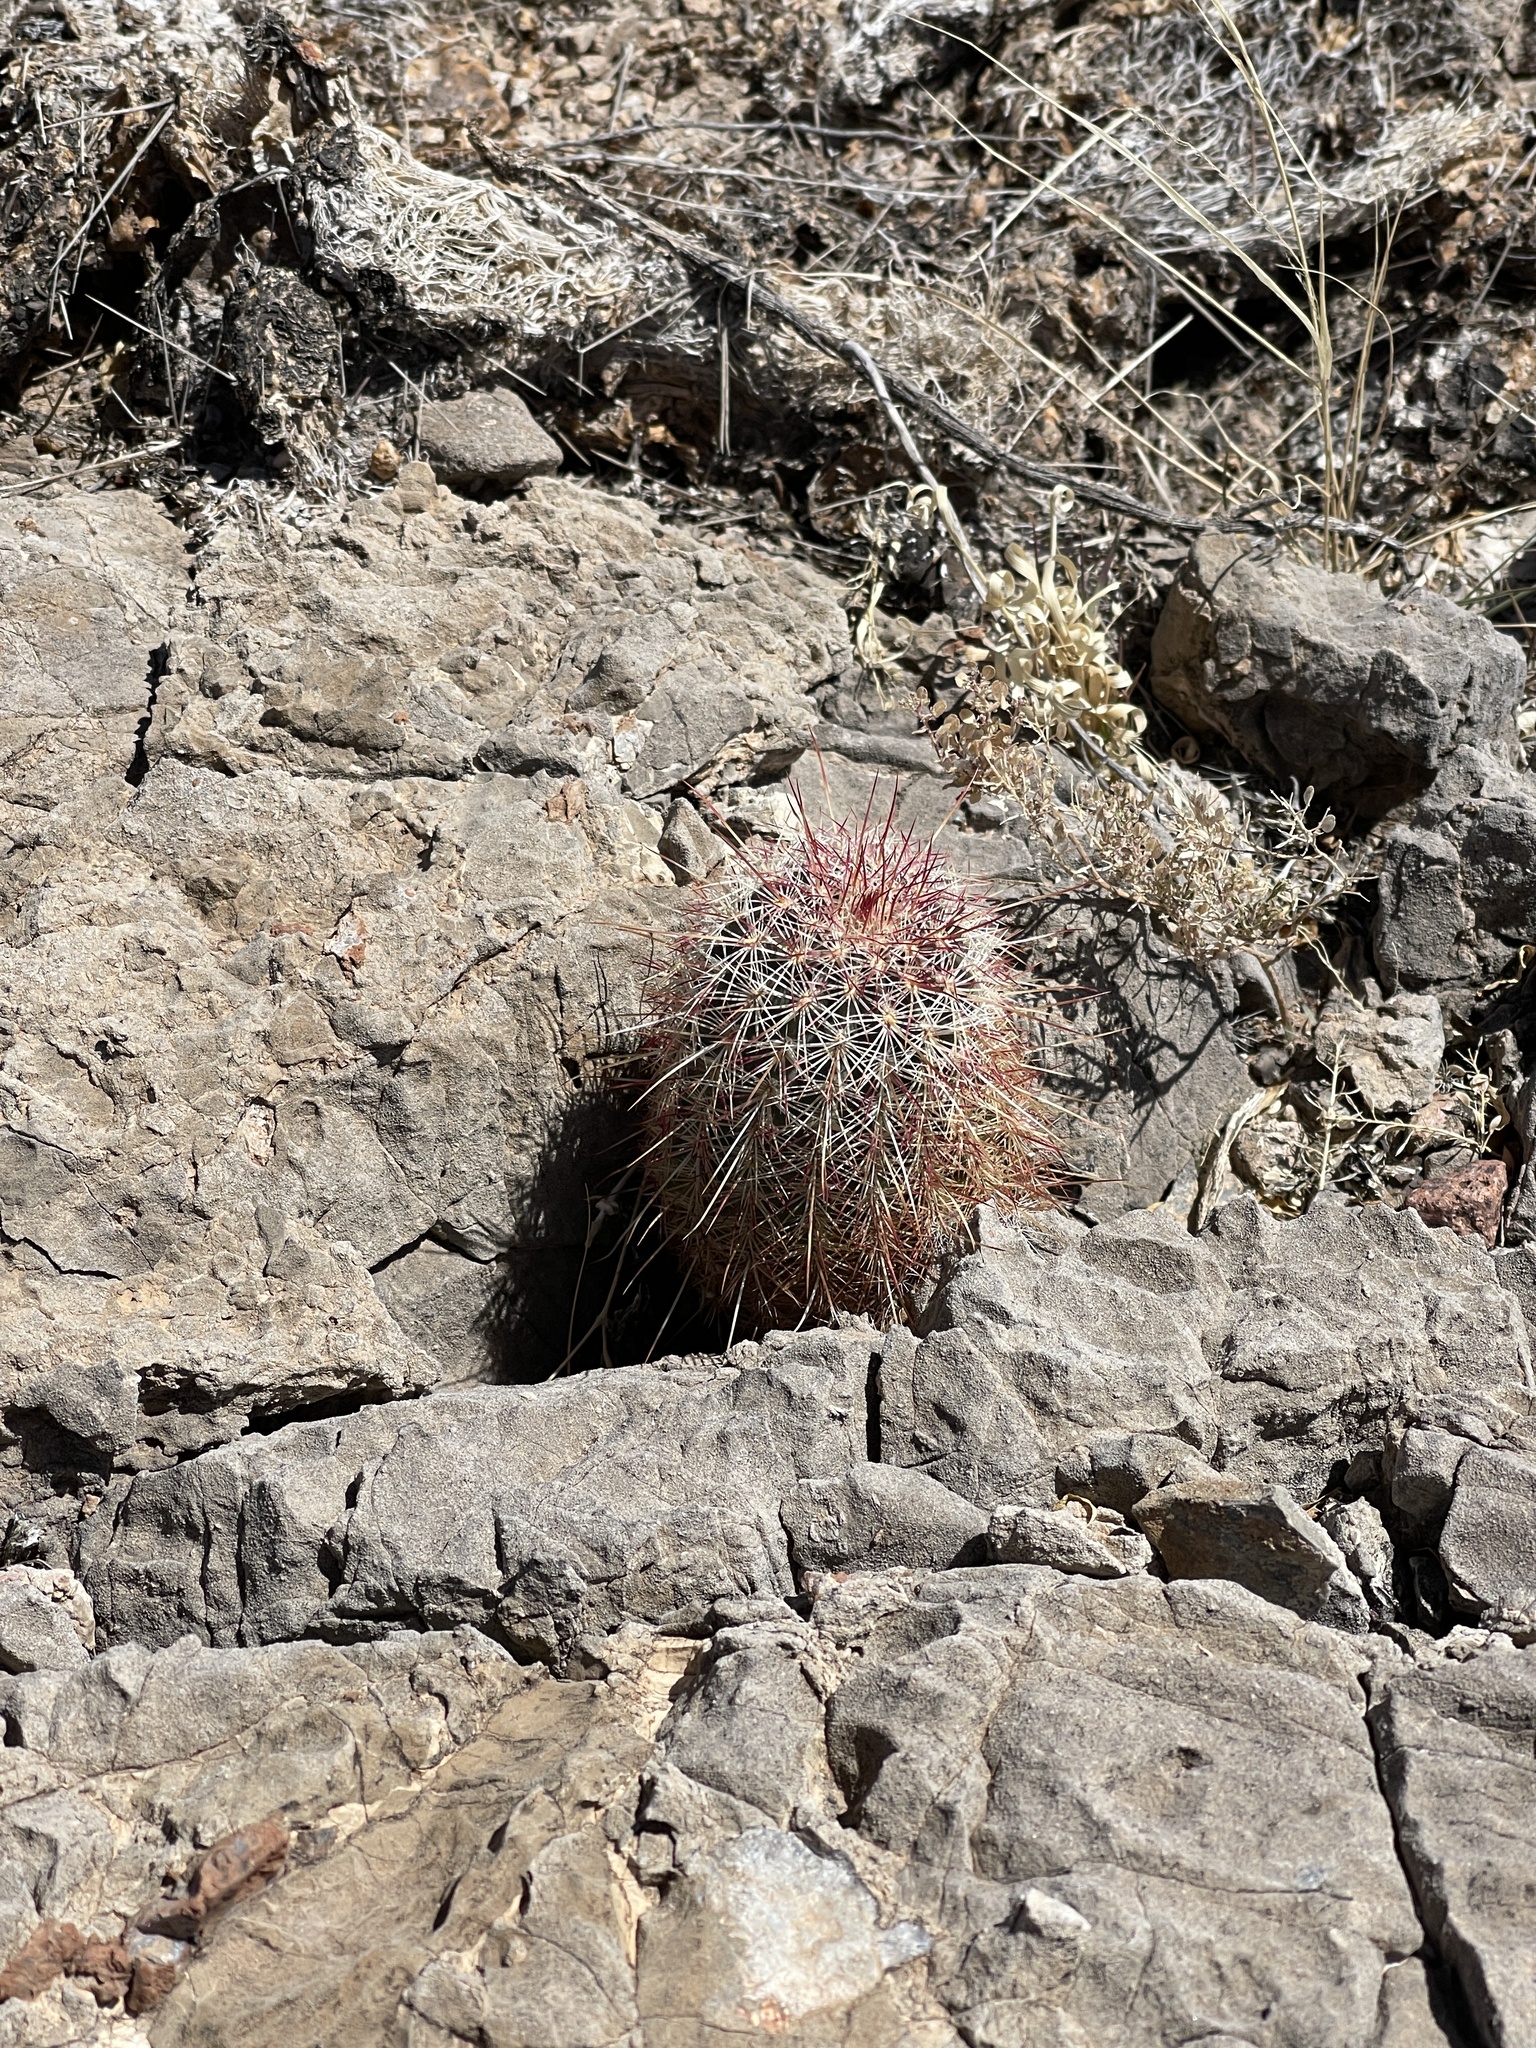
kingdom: Plantae
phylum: Tracheophyta
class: Magnoliopsida
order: Caryophyllales
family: Cactaceae
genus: Echinocereus
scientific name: Echinocereus viridiflorus
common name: Nylon hedgehog cactus
